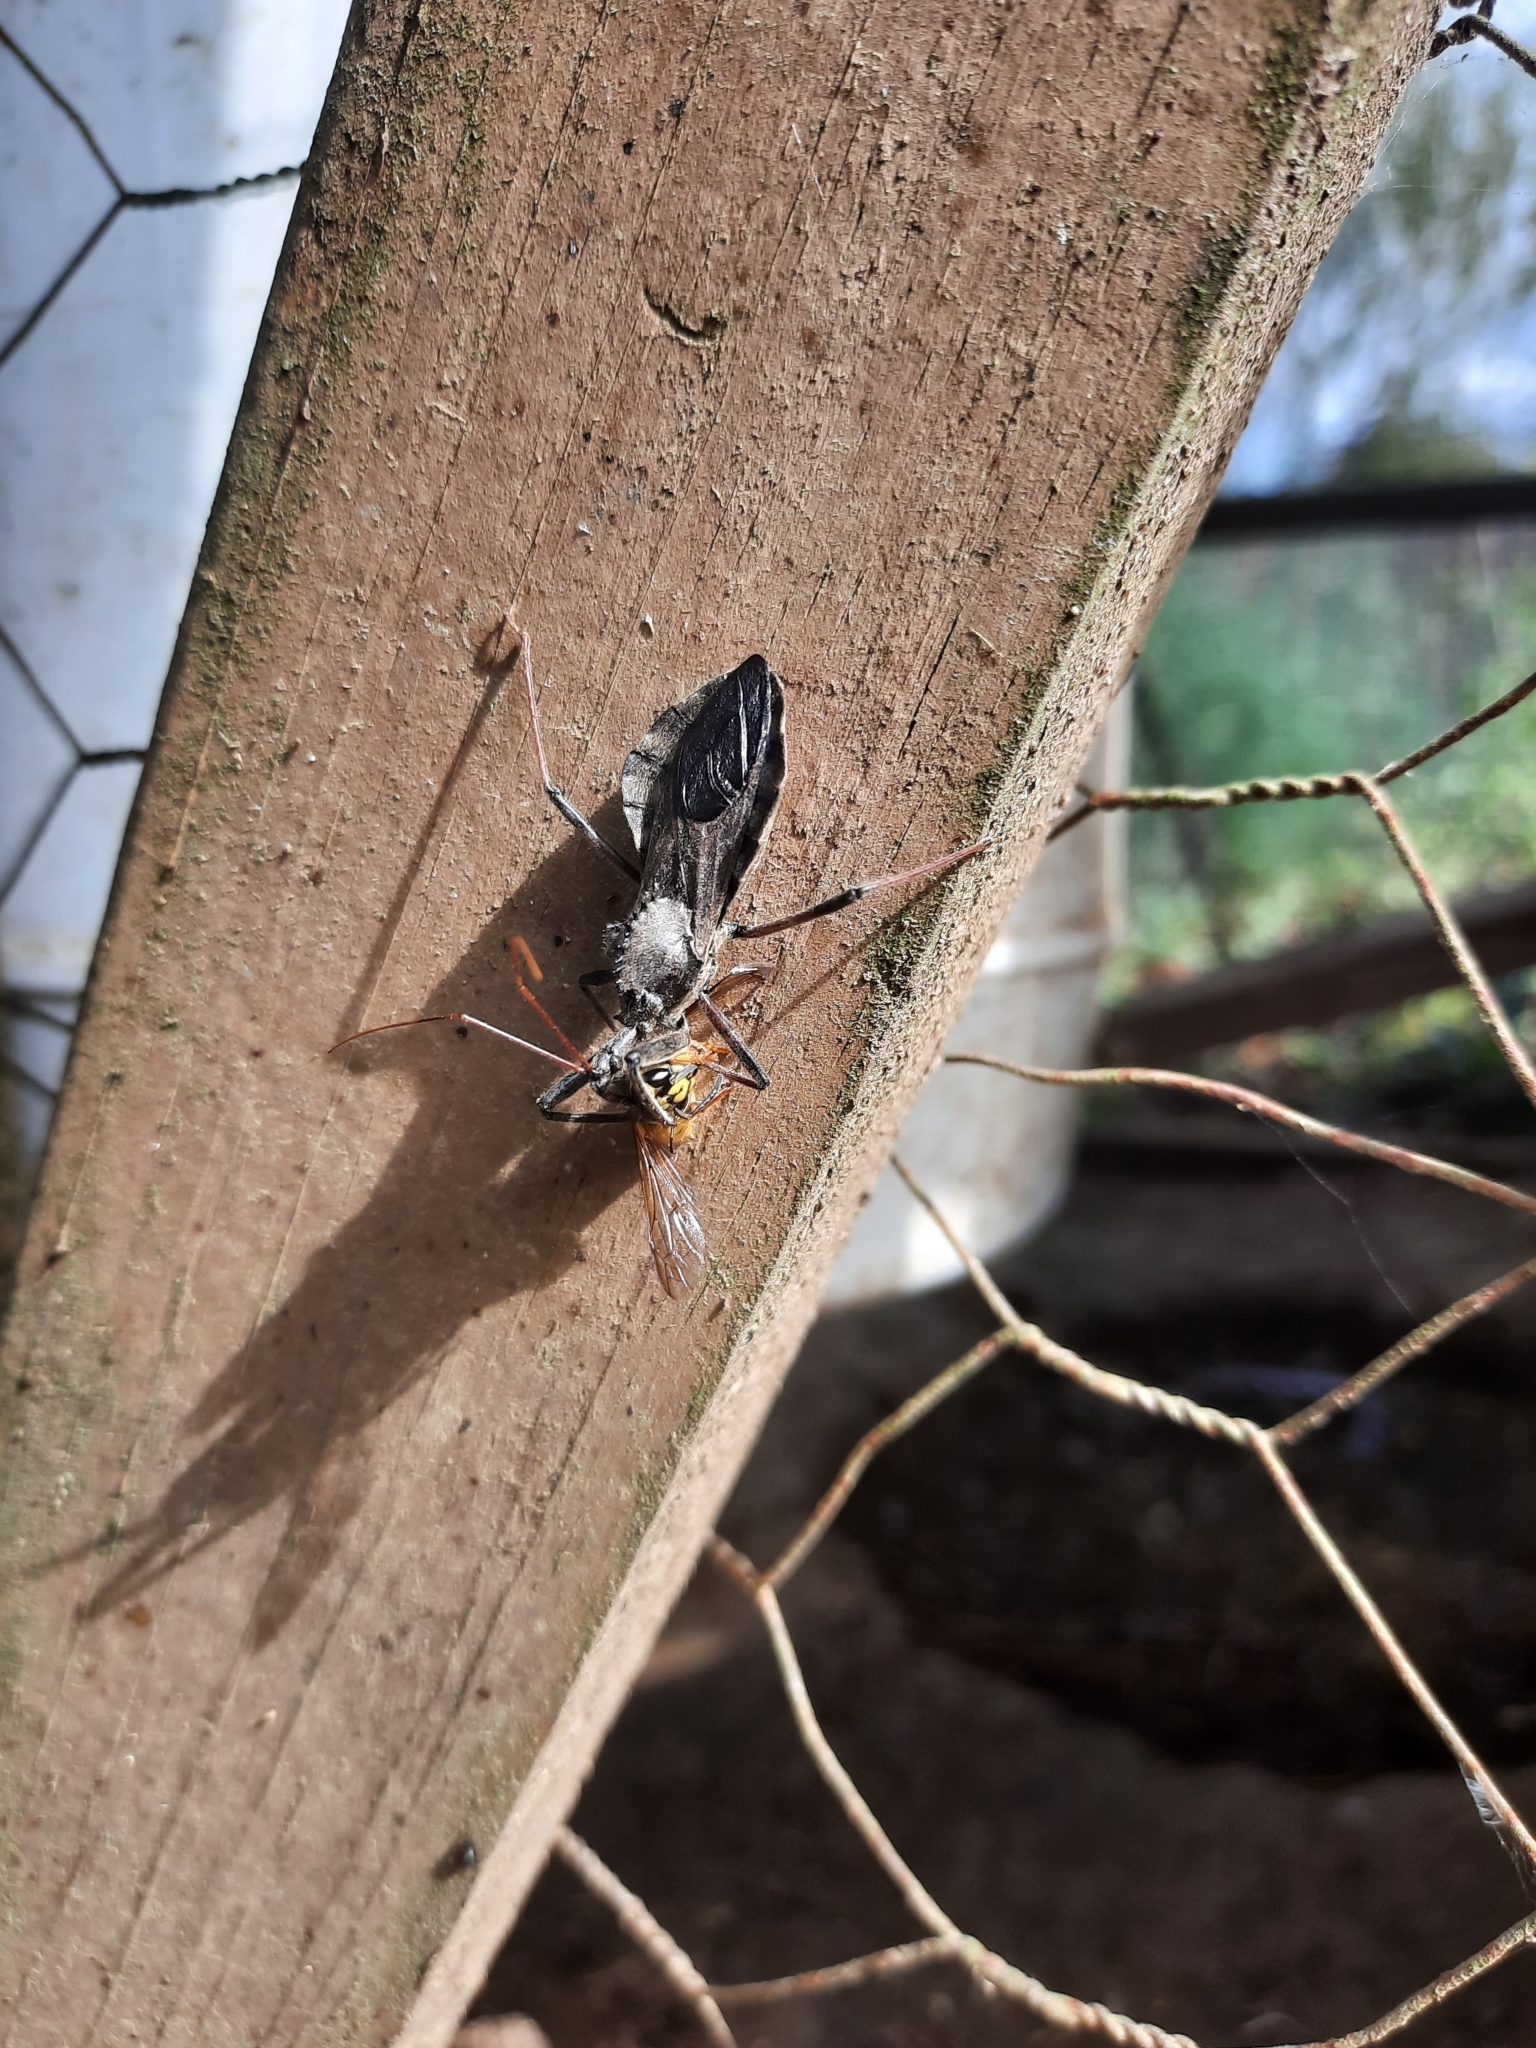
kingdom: Animalia
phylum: Arthropoda
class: Insecta
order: Hemiptera
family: Reduviidae
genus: Arilus
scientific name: Arilus cristatus
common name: North american wheel bug
